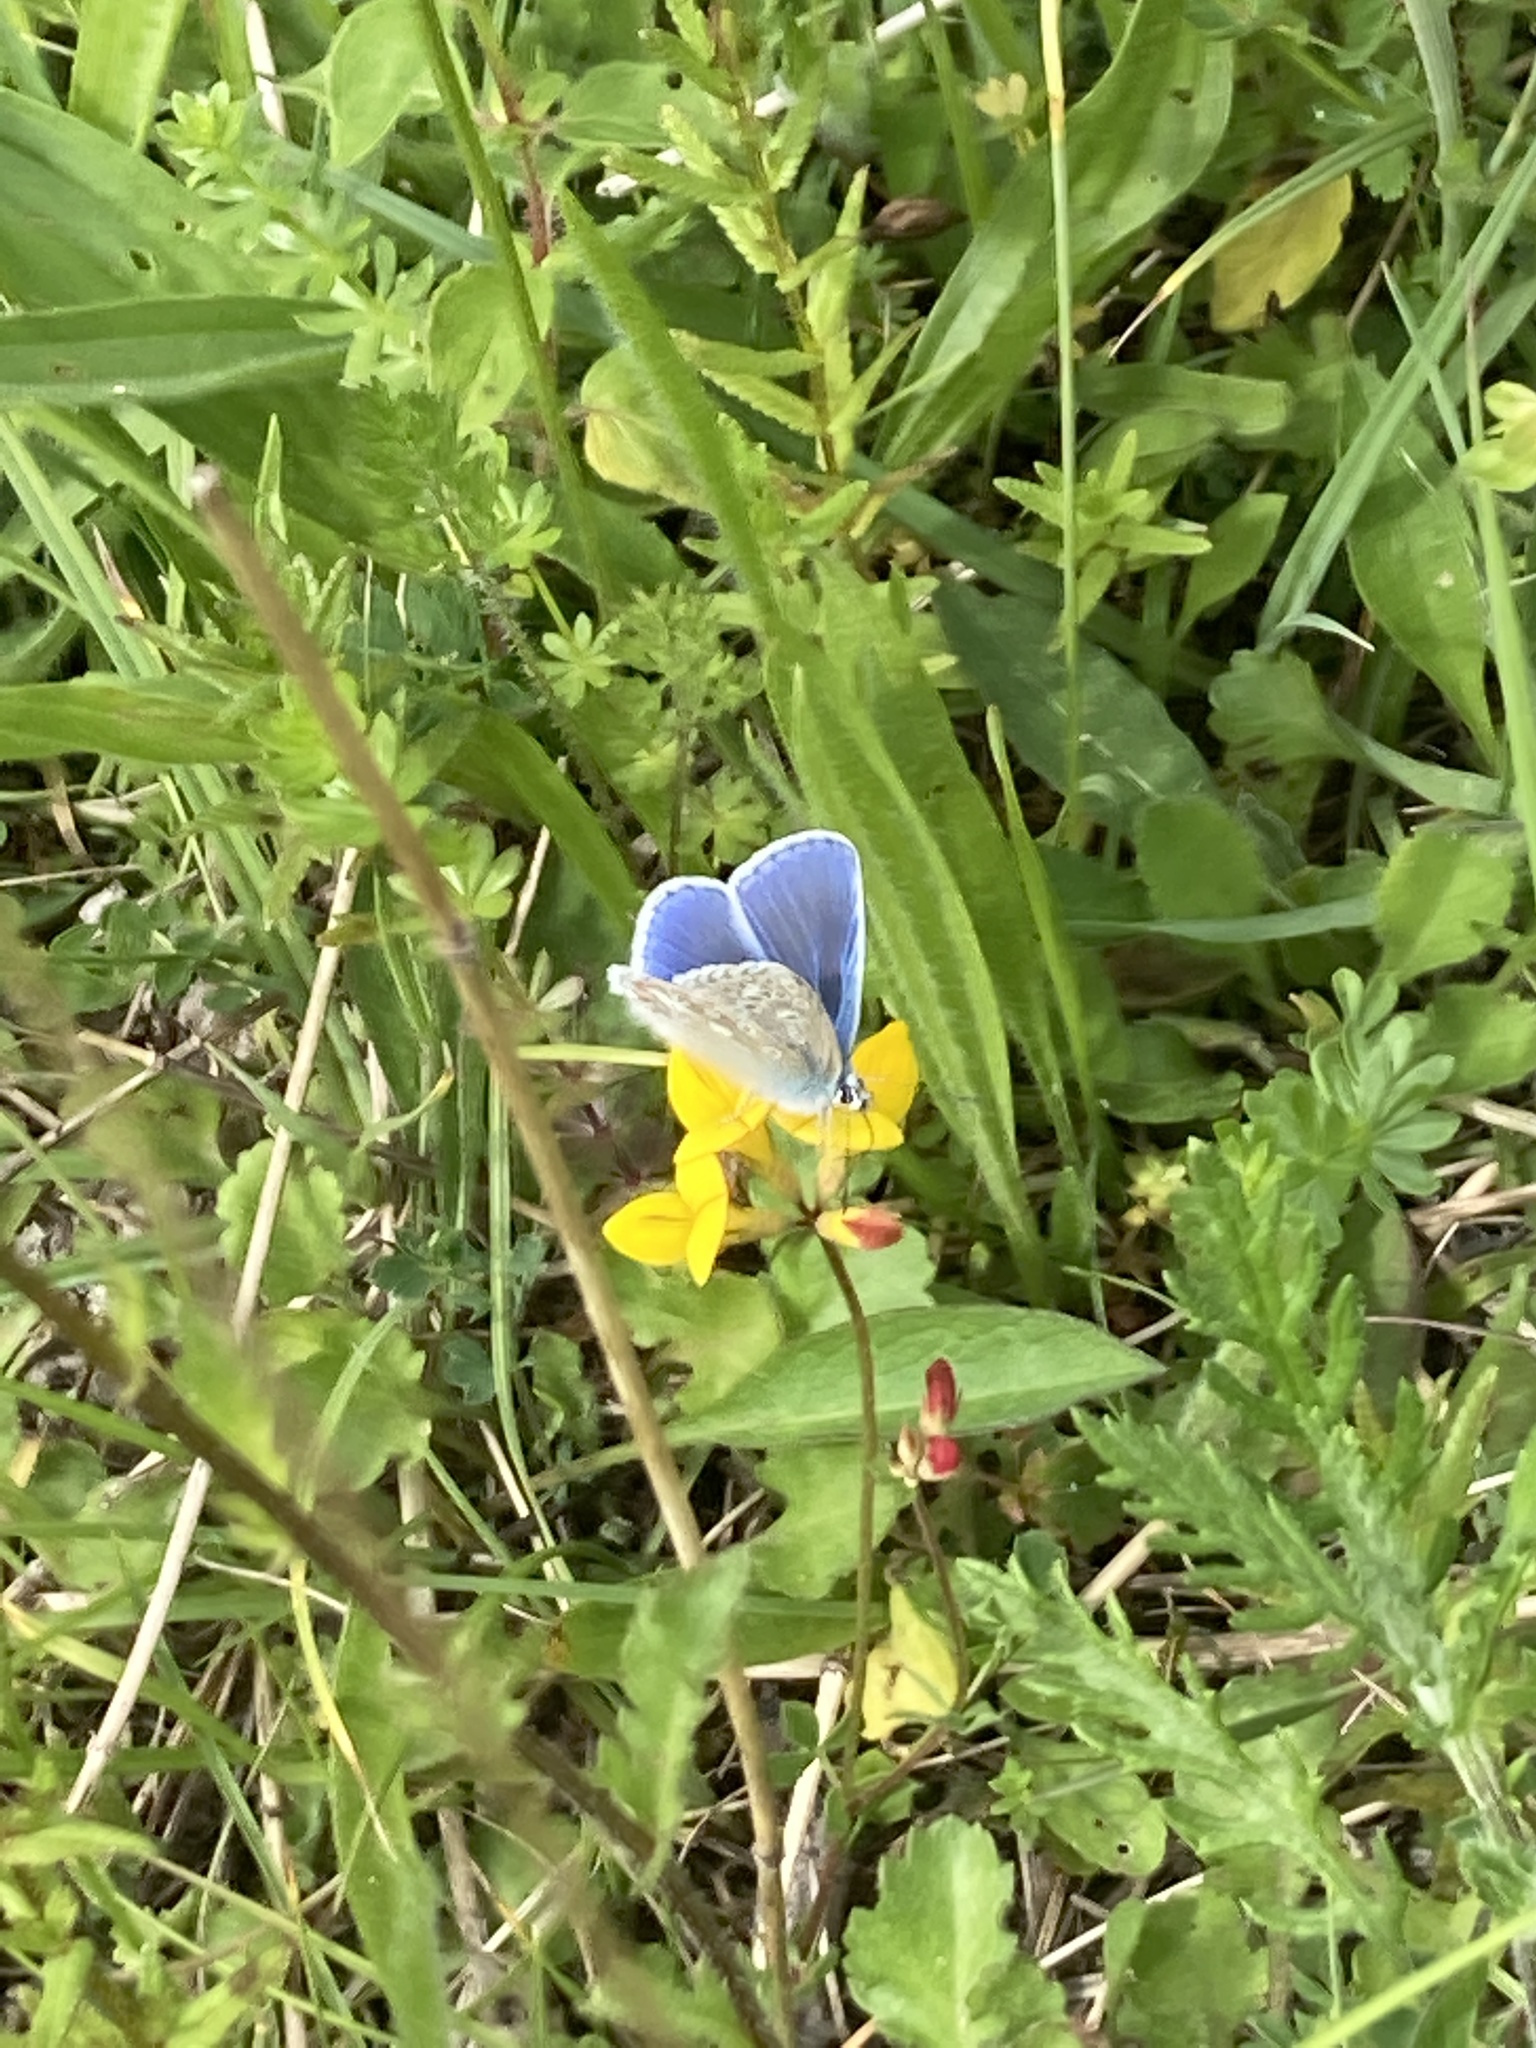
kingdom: Animalia
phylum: Arthropoda
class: Insecta
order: Lepidoptera
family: Lycaenidae
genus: Polyommatus
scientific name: Polyommatus icarus
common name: Common blue
